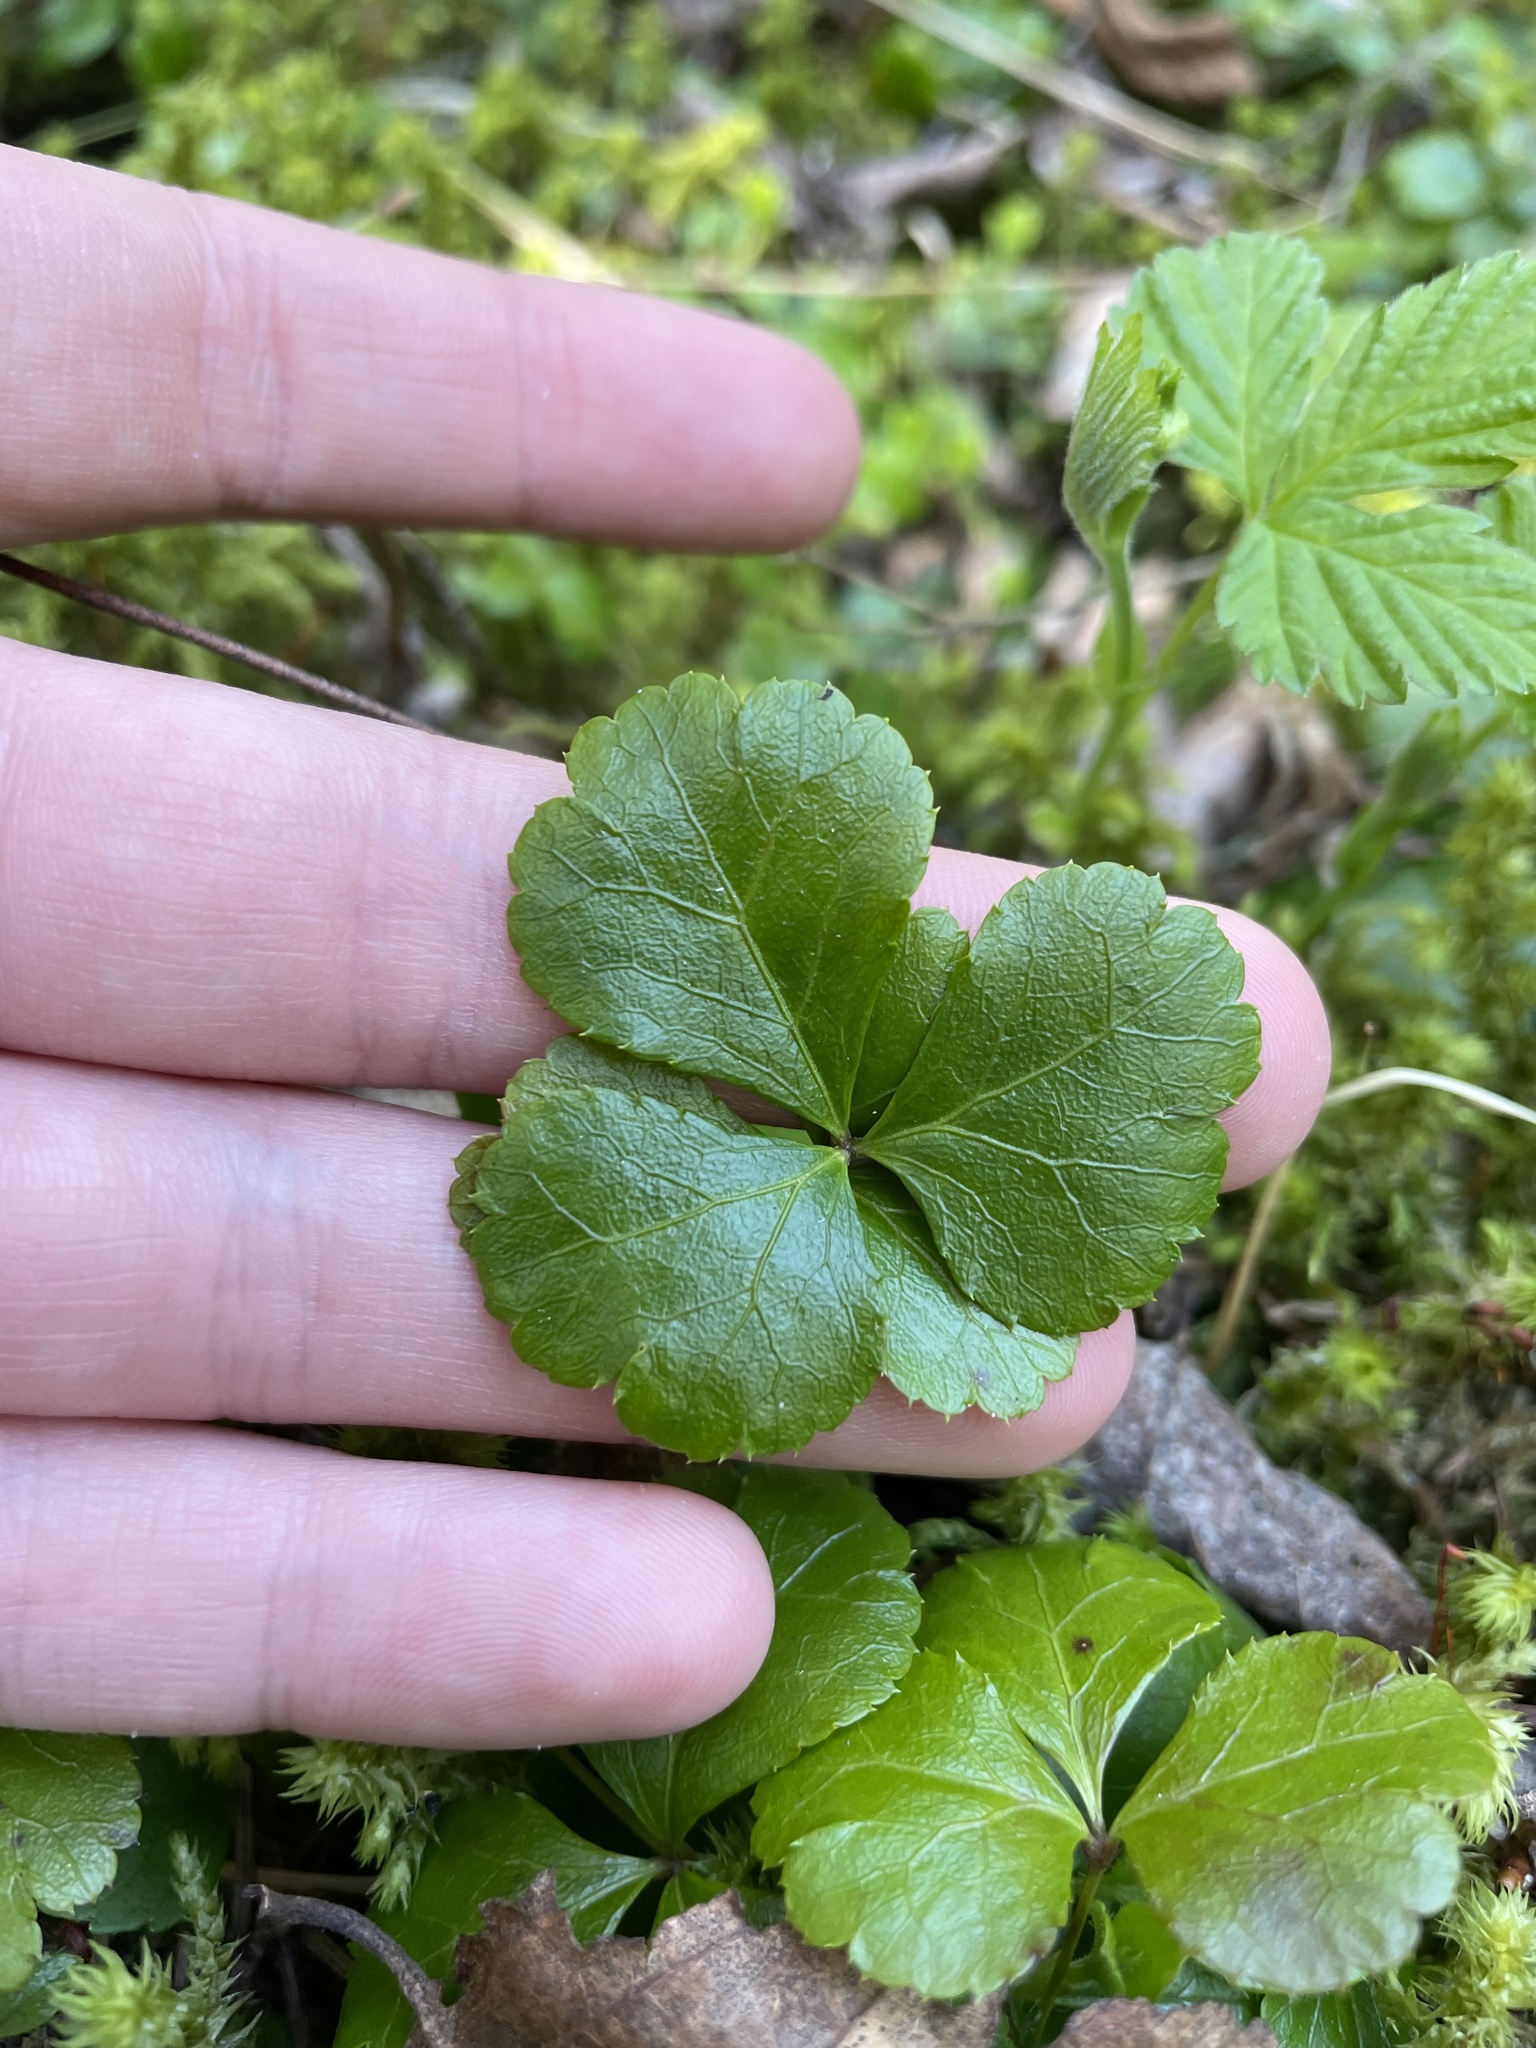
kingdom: Plantae
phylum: Tracheophyta
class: Magnoliopsida
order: Ranunculales
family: Ranunculaceae
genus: Coptis
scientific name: Coptis trifolia
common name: Canker-root
